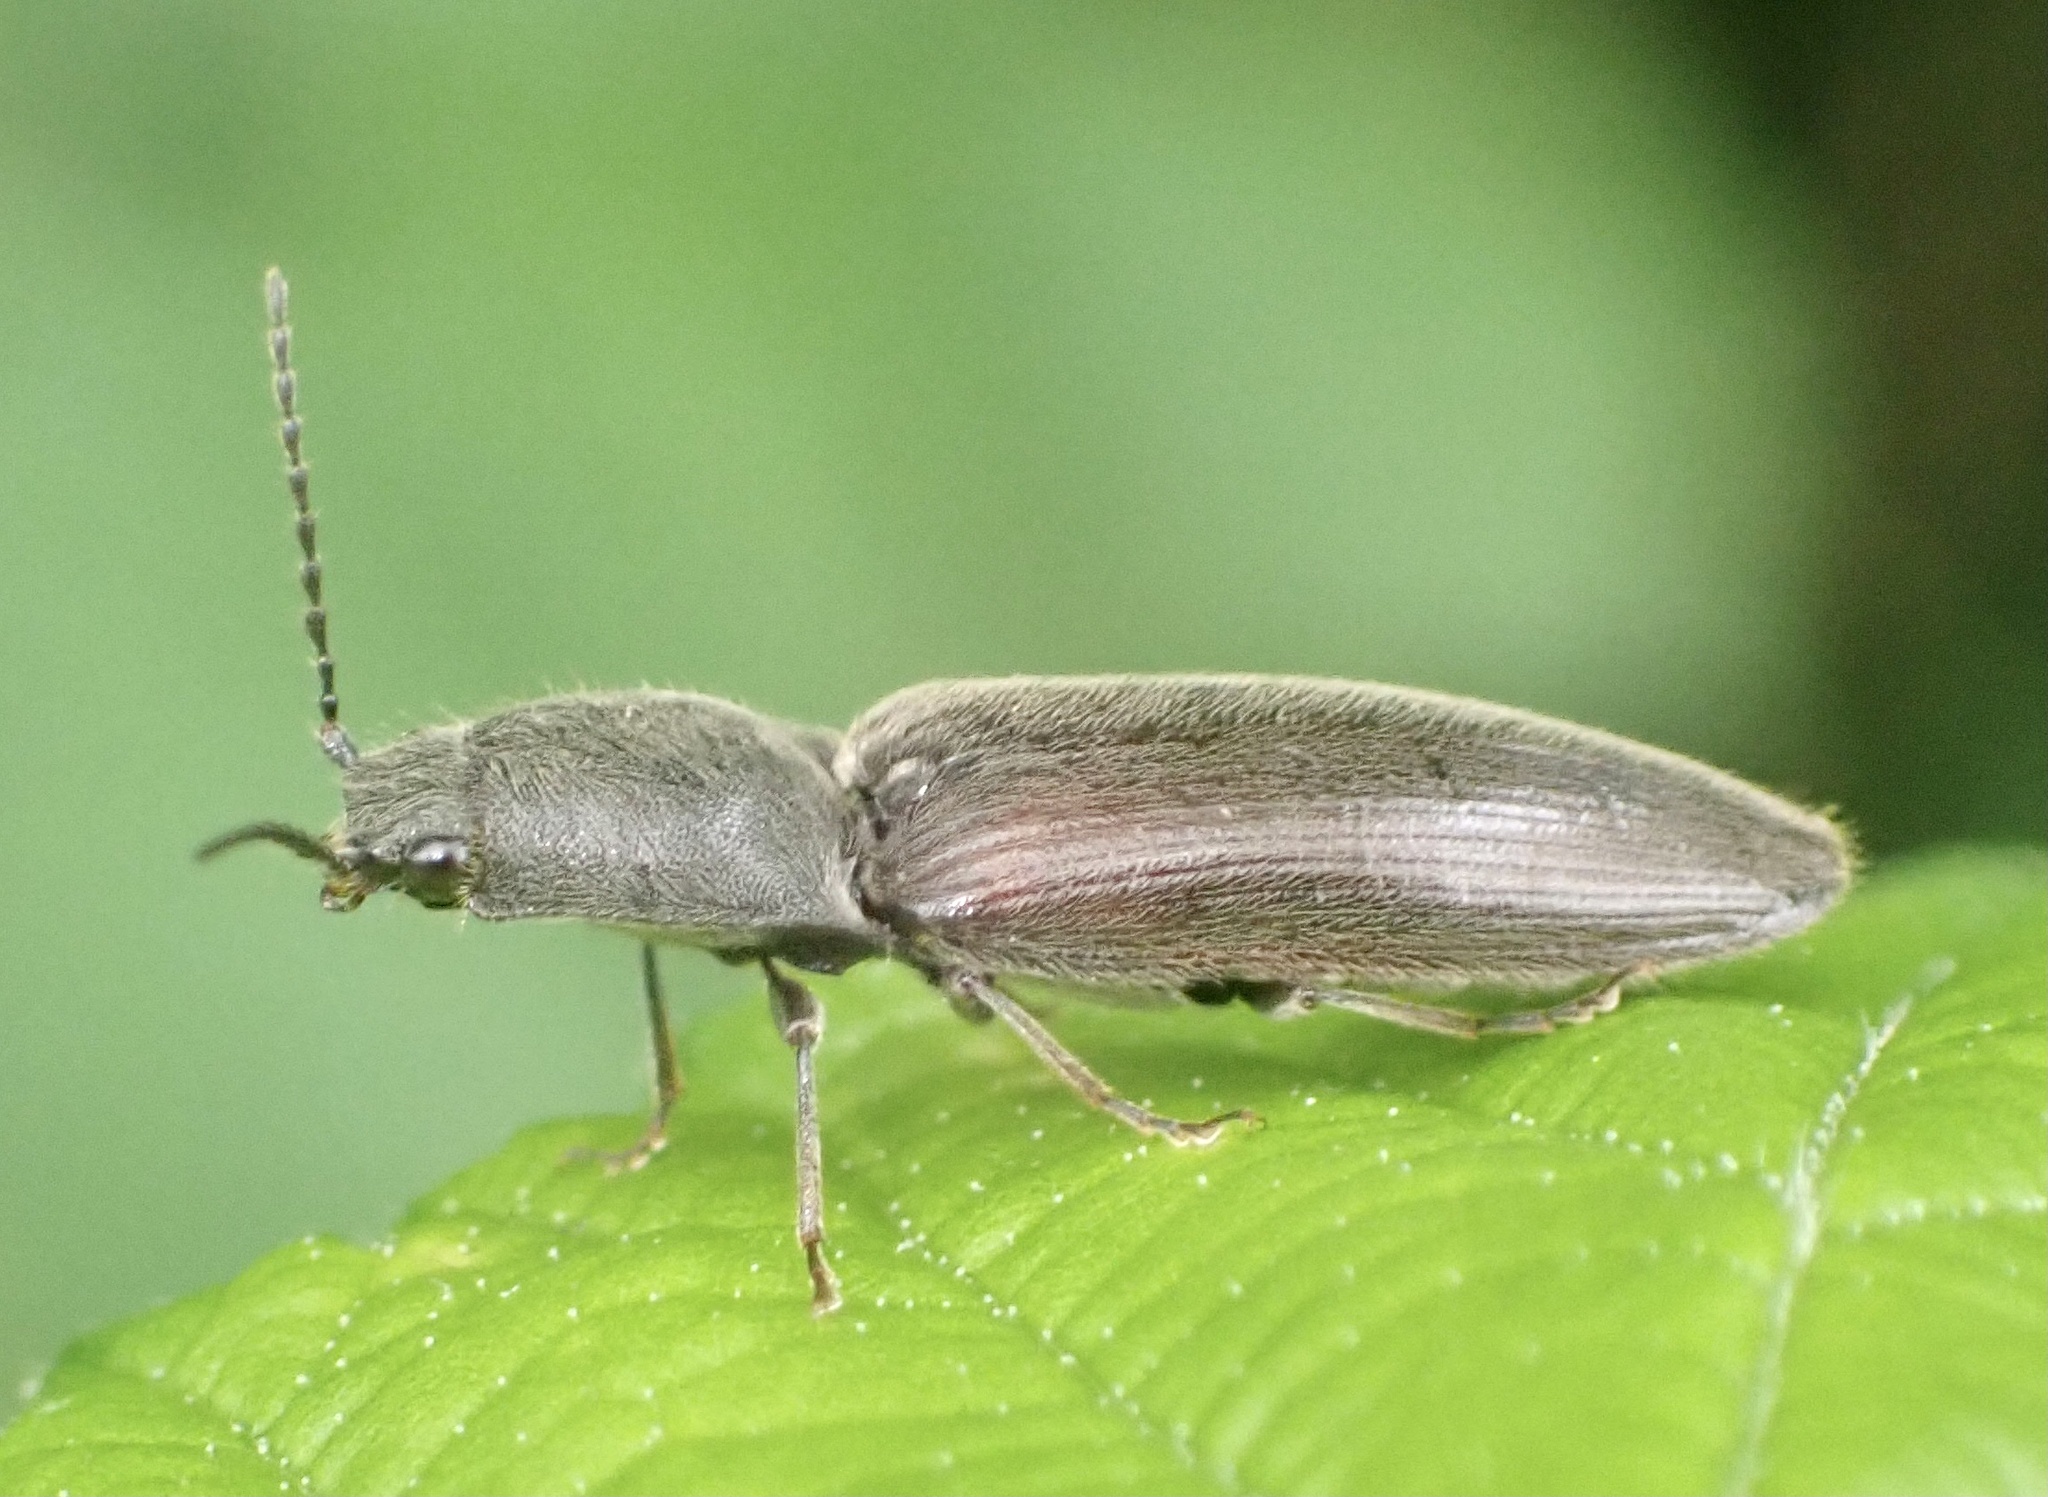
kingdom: Animalia
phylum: Arthropoda
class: Insecta
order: Coleoptera
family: Elateridae
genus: Athous
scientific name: Athous haemorrhoidalis
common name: Red-brown click beetle
